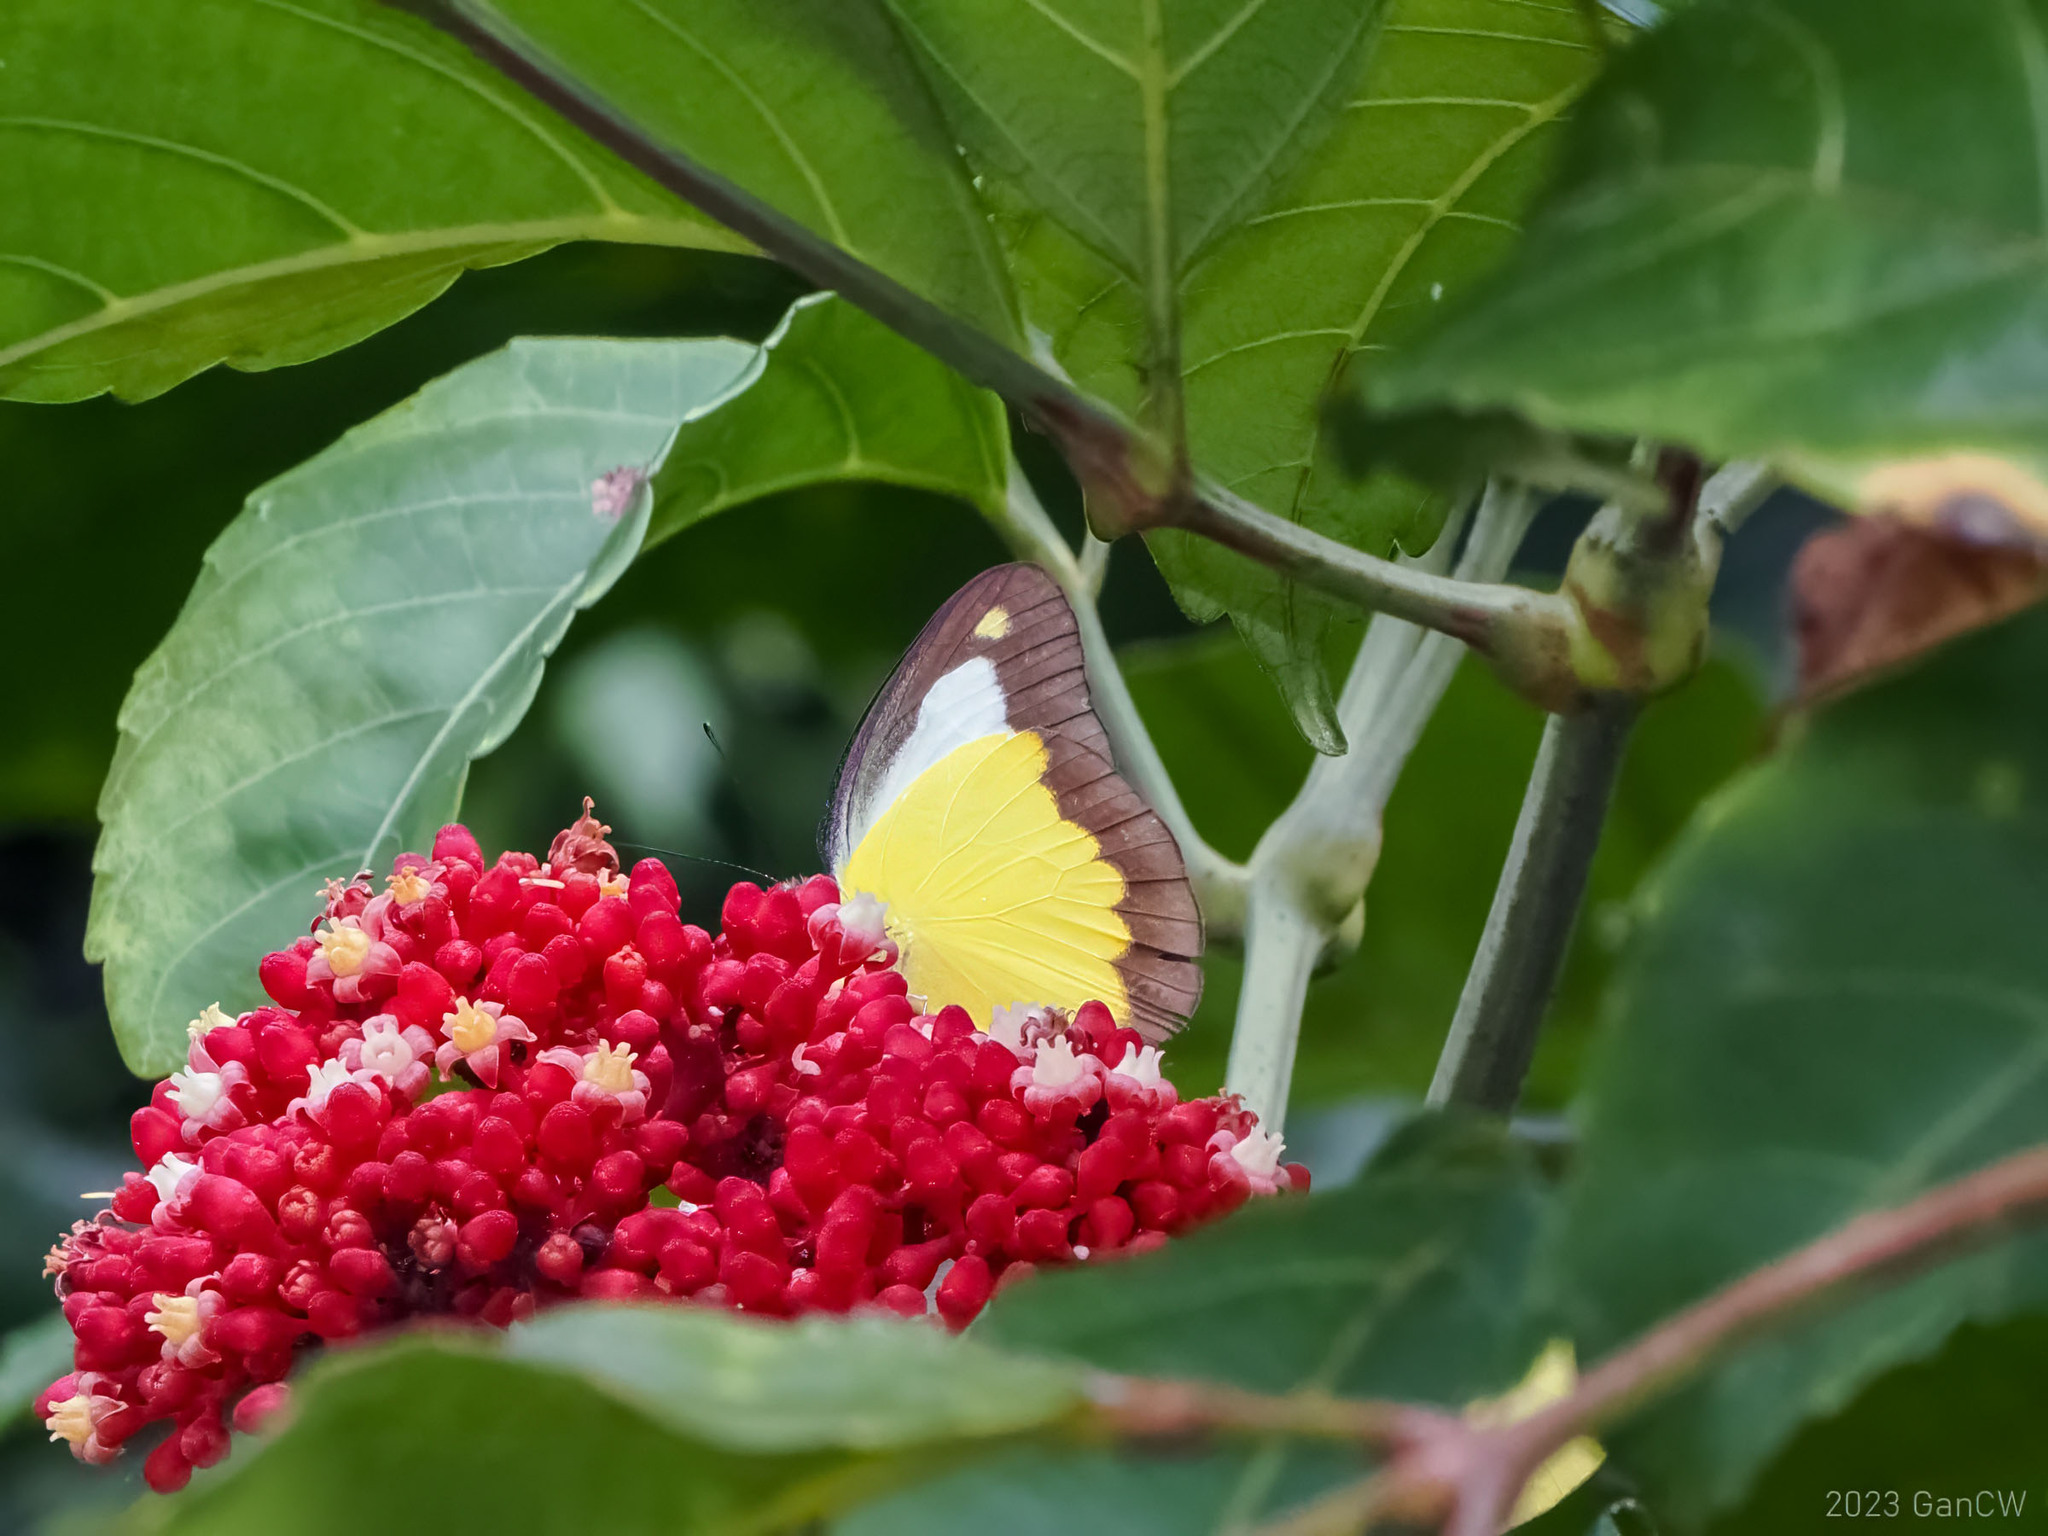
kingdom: Animalia
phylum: Arthropoda
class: Insecta
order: Lepidoptera
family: Pieridae
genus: Appias
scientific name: Appias nephele
